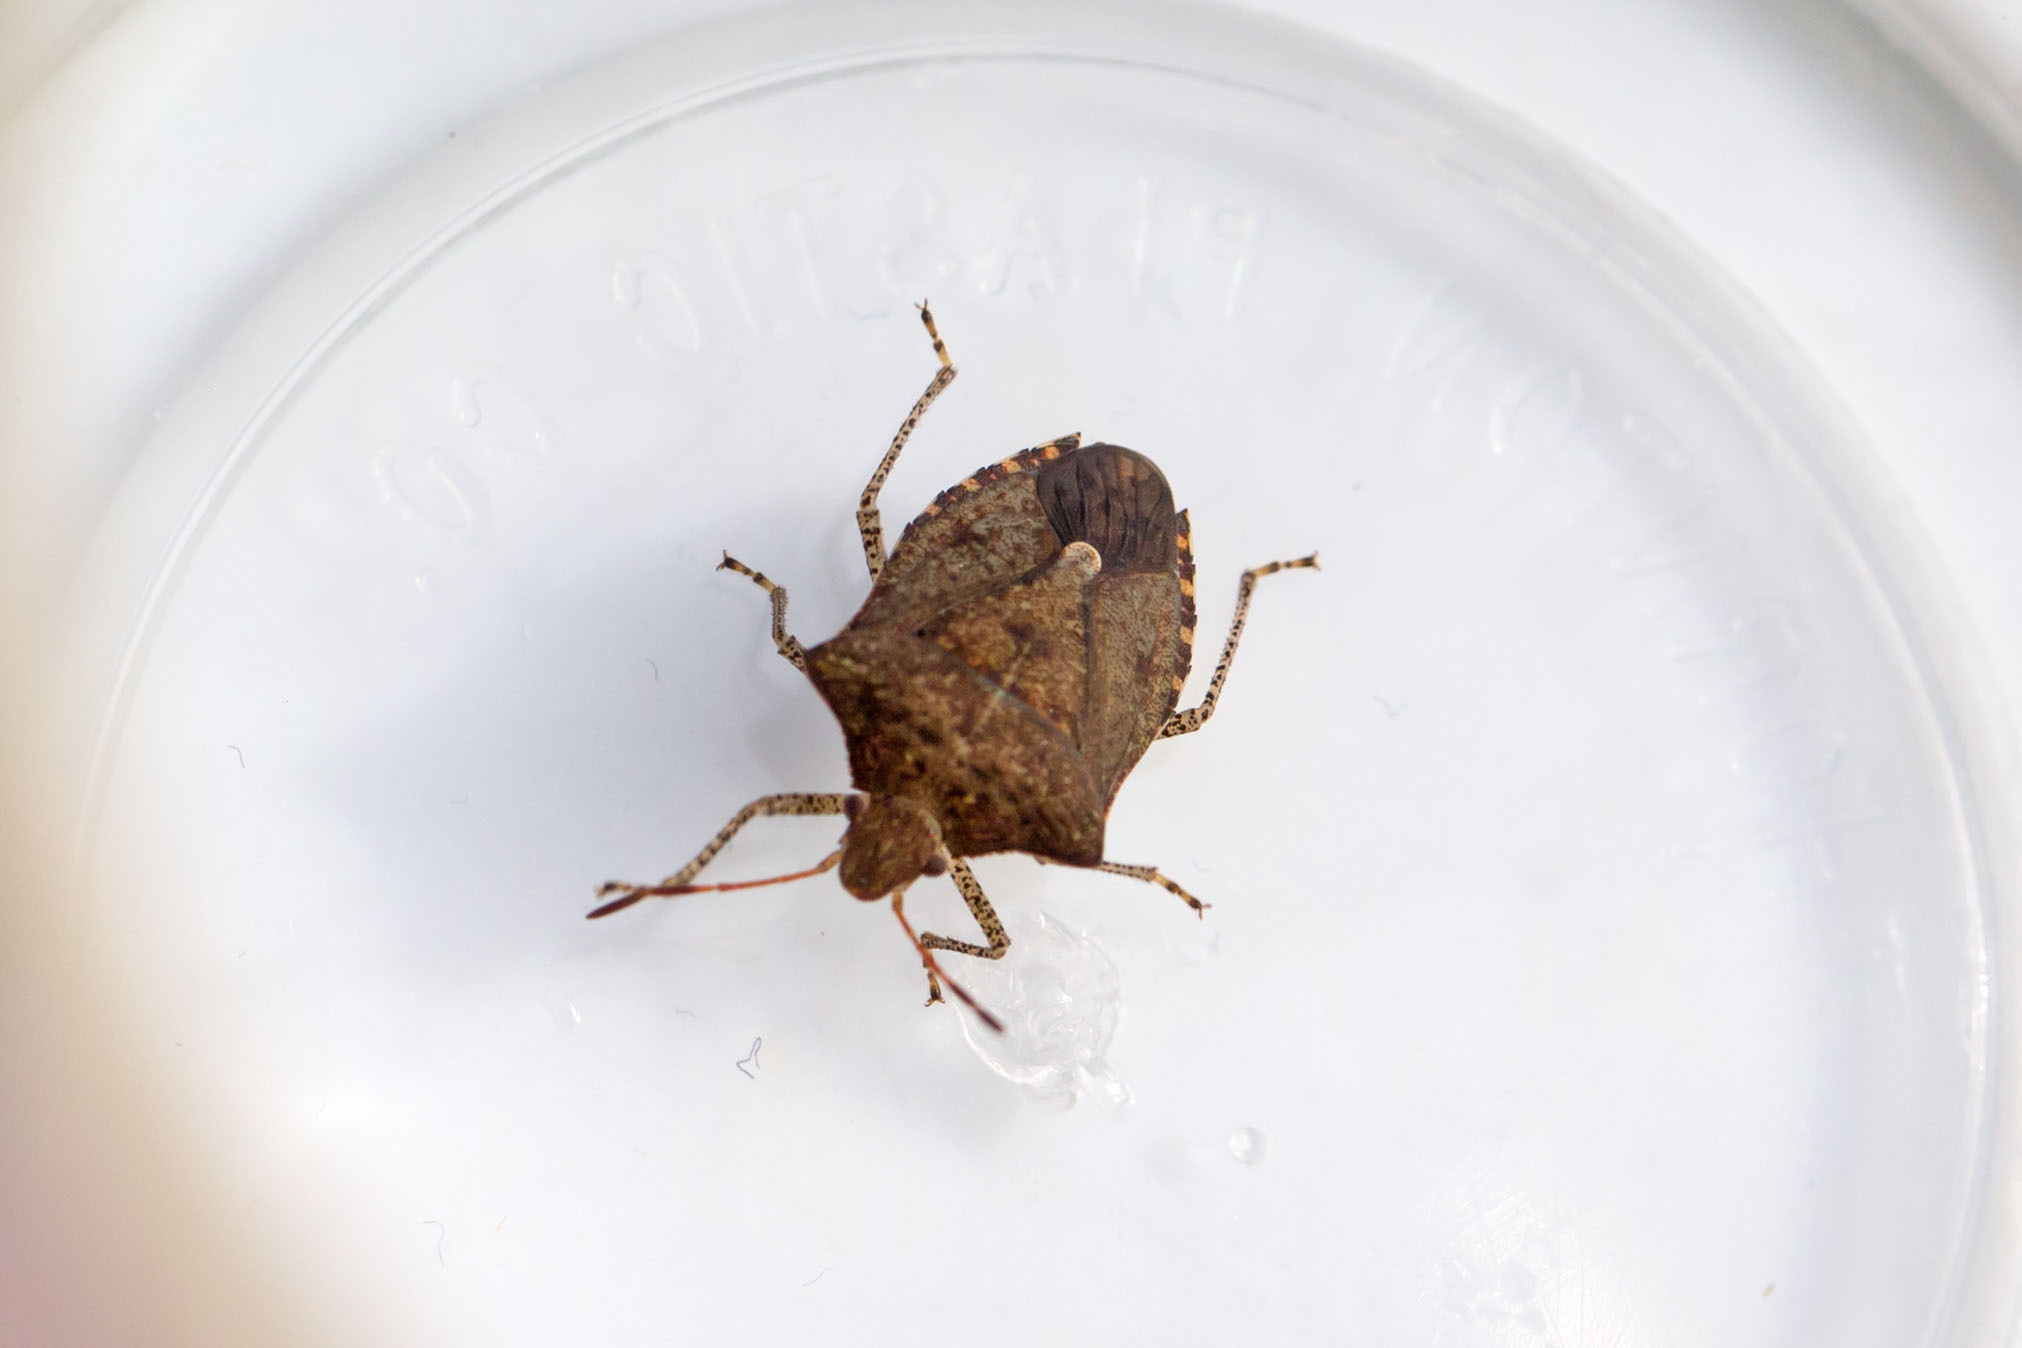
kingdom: Animalia
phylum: Arthropoda
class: Insecta
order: Hemiptera
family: Pentatomidae
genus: Euschistus
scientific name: Euschistus tristigmus
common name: Dusky stink bug
